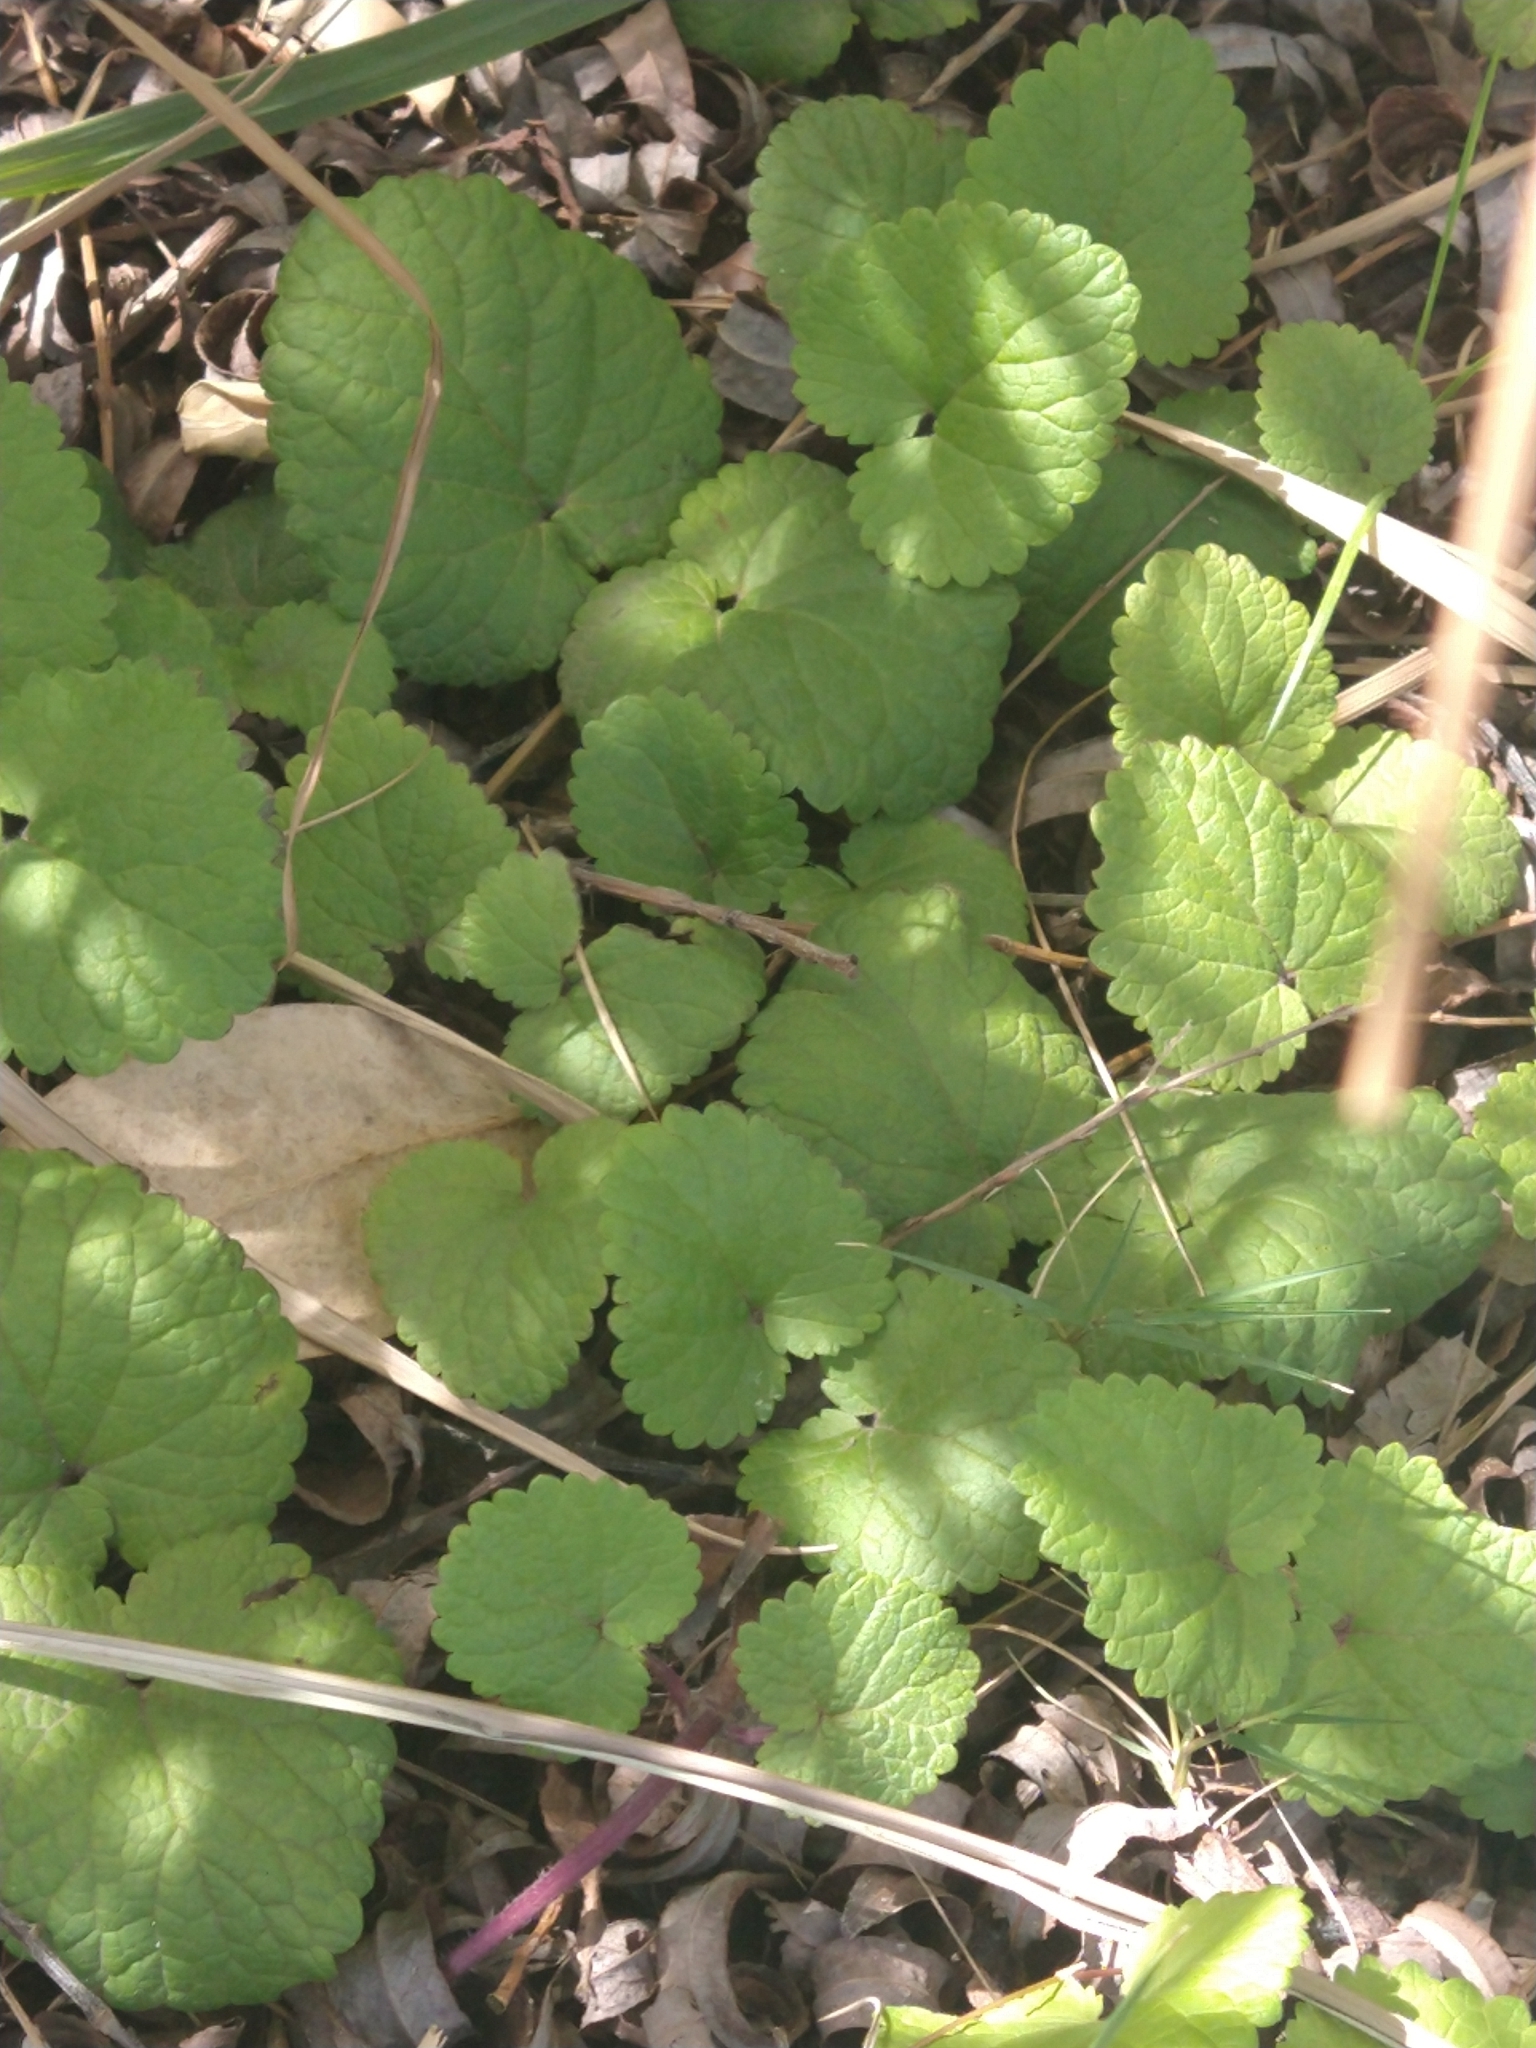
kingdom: Plantae
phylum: Tracheophyta
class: Magnoliopsida
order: Lamiales
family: Lamiaceae
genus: Salvia
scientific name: Salvia procurrens
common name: Blue creeper
